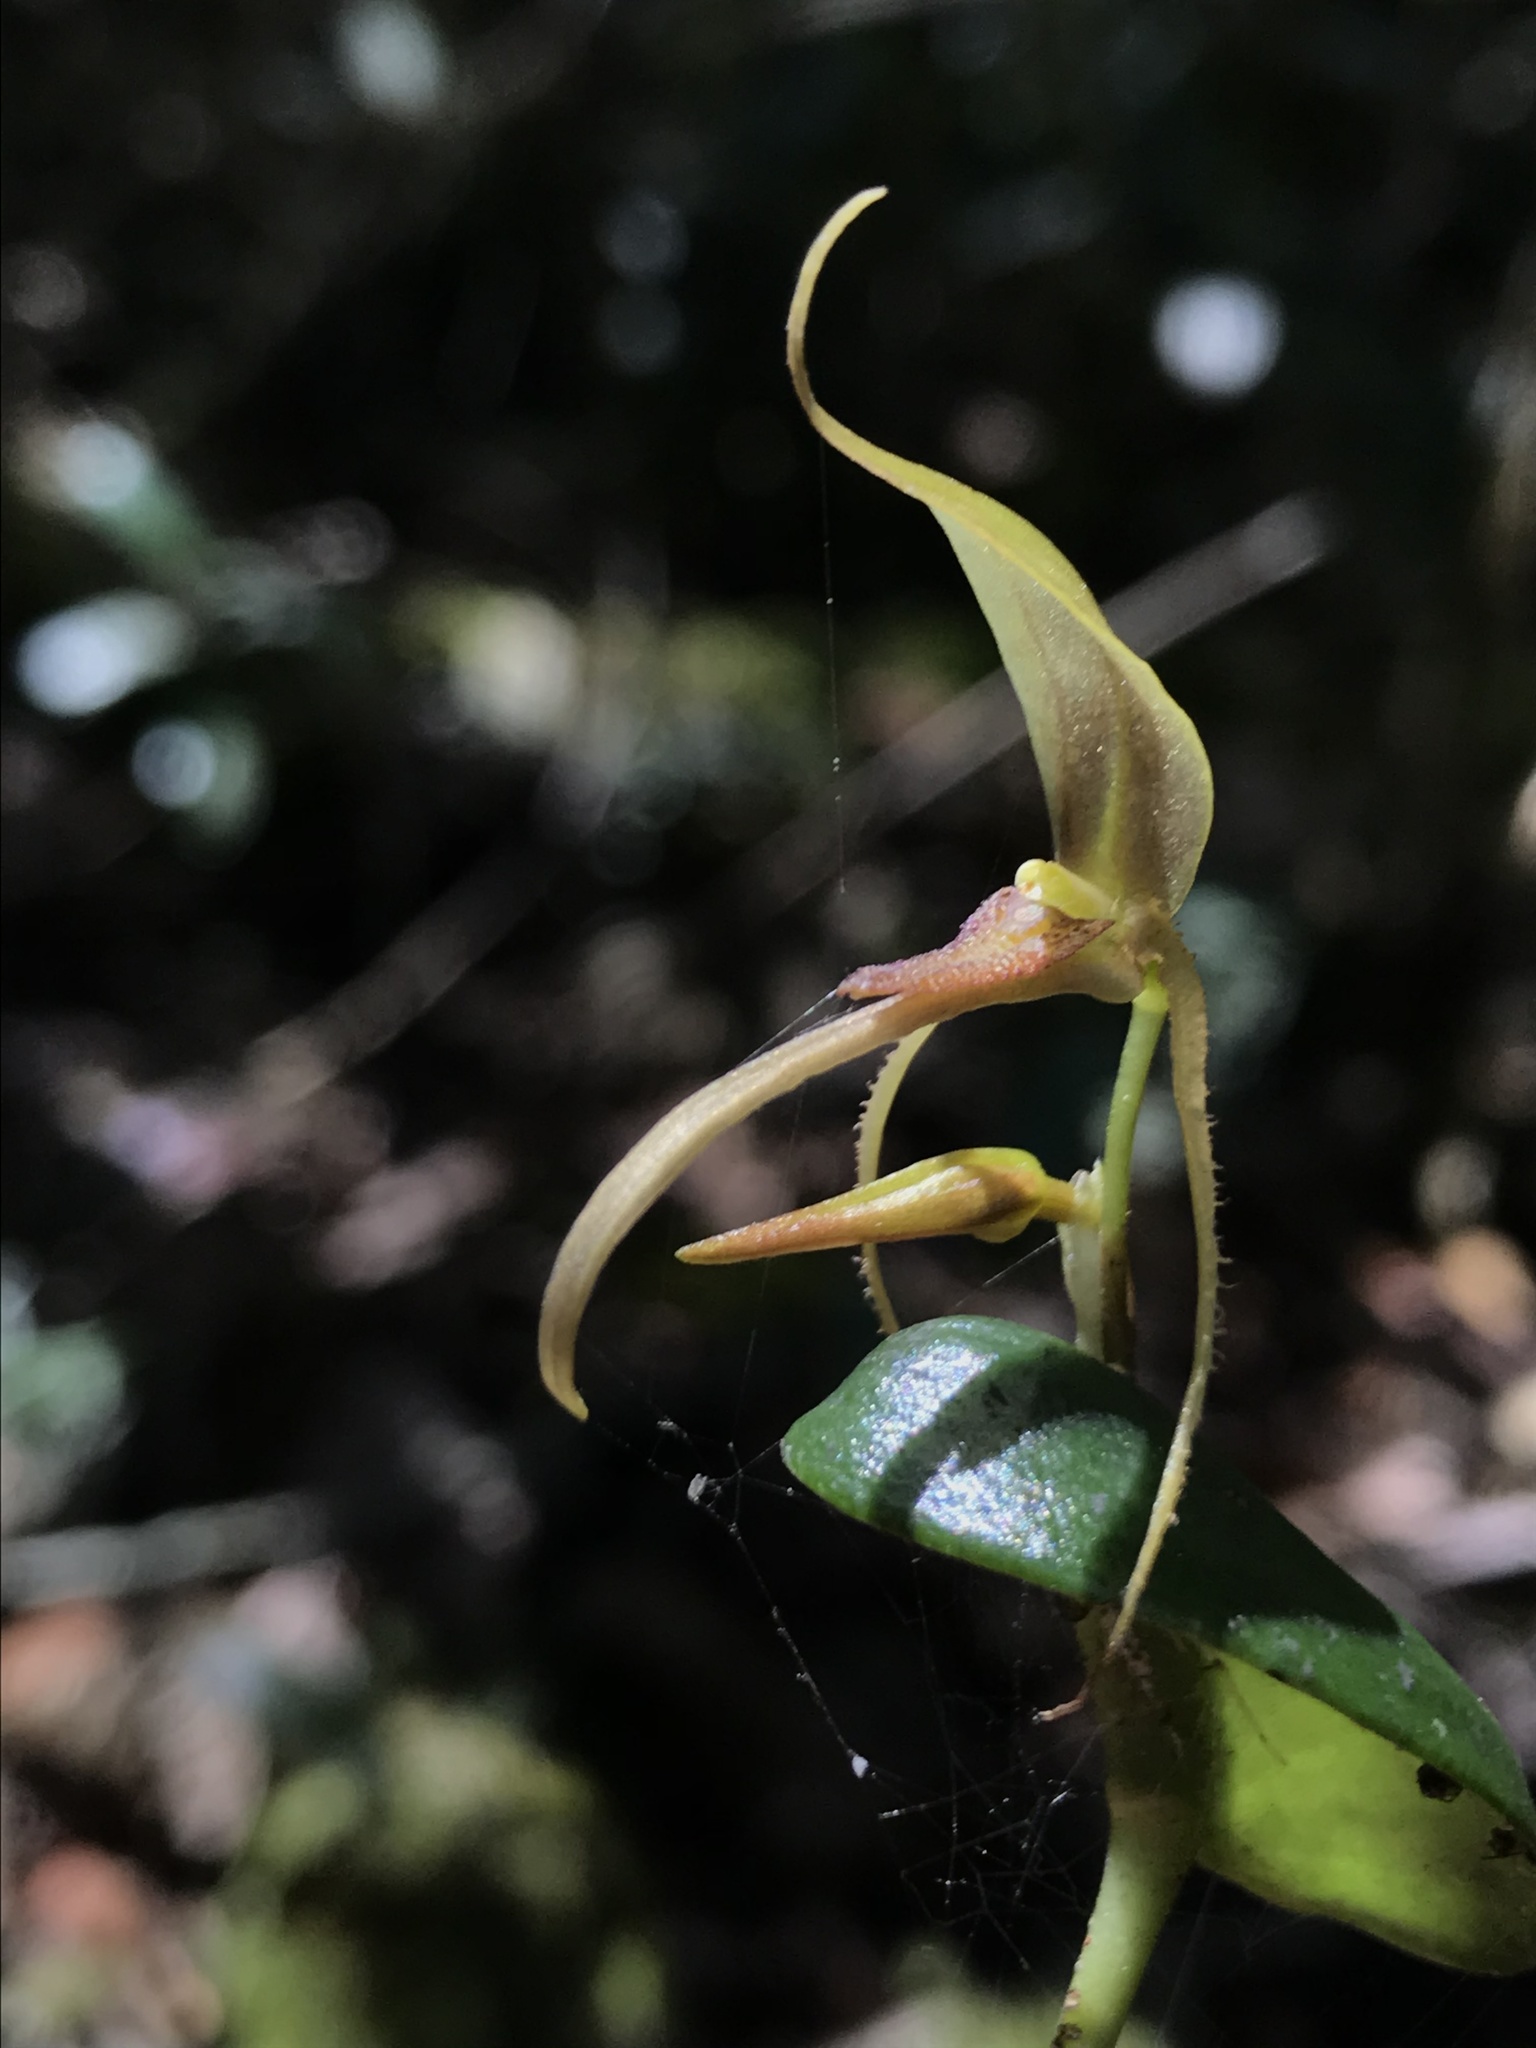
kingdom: Plantae
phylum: Tracheophyta
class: Liliopsida
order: Asparagales
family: Orchidaceae
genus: Pleurothallis
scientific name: Pleurothallis killipii
